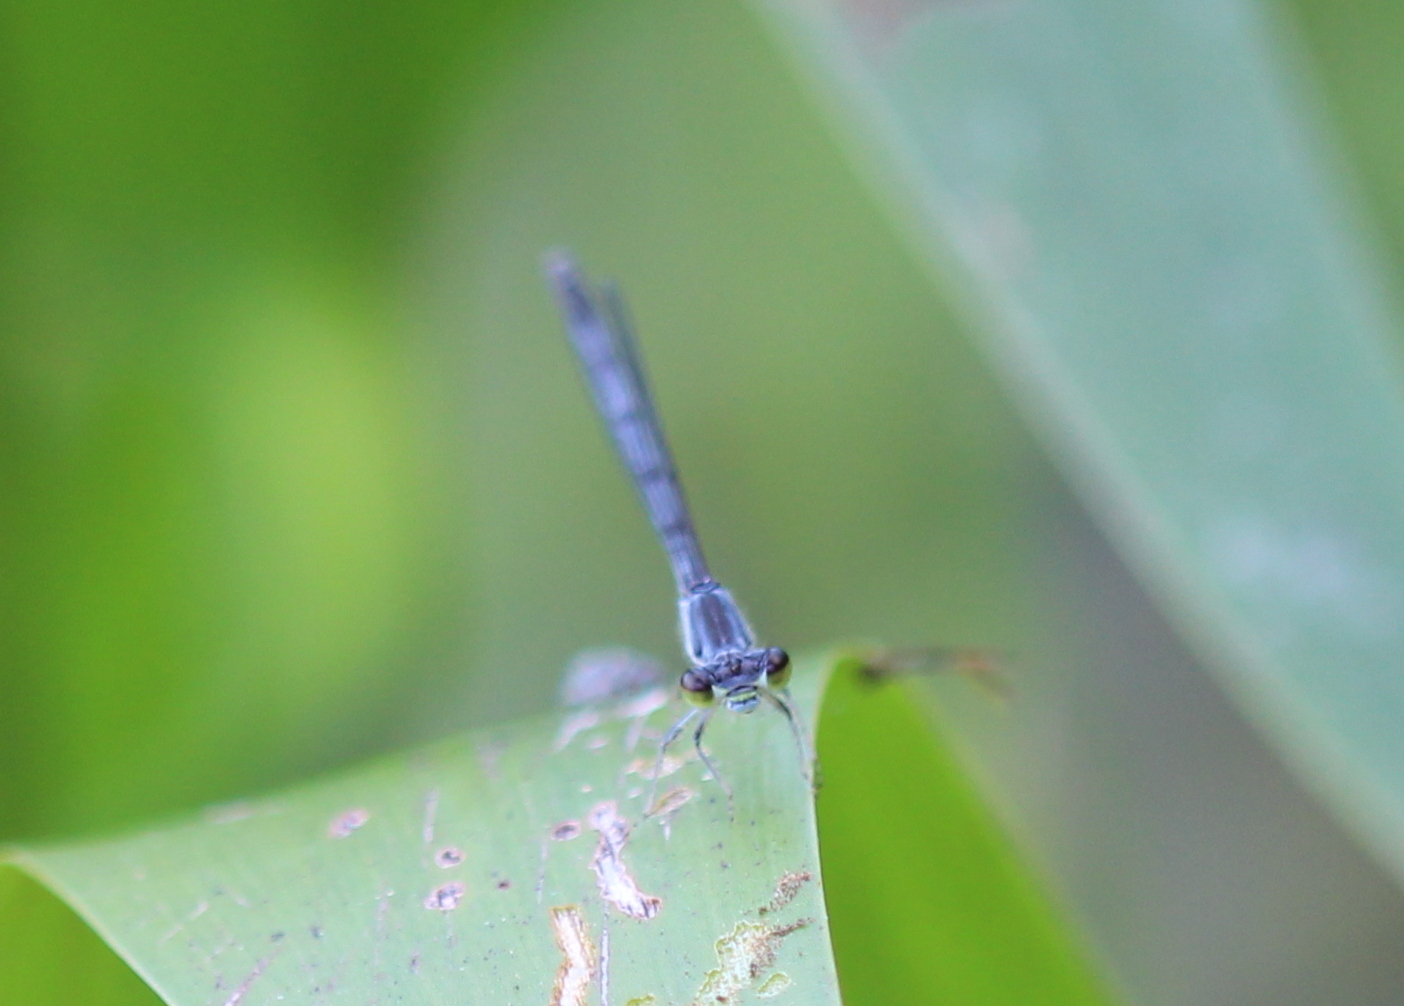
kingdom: Animalia
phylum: Arthropoda
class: Insecta
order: Odonata
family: Coenagrionidae
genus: Ischnura
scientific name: Ischnura verticalis
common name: Eastern forktail
